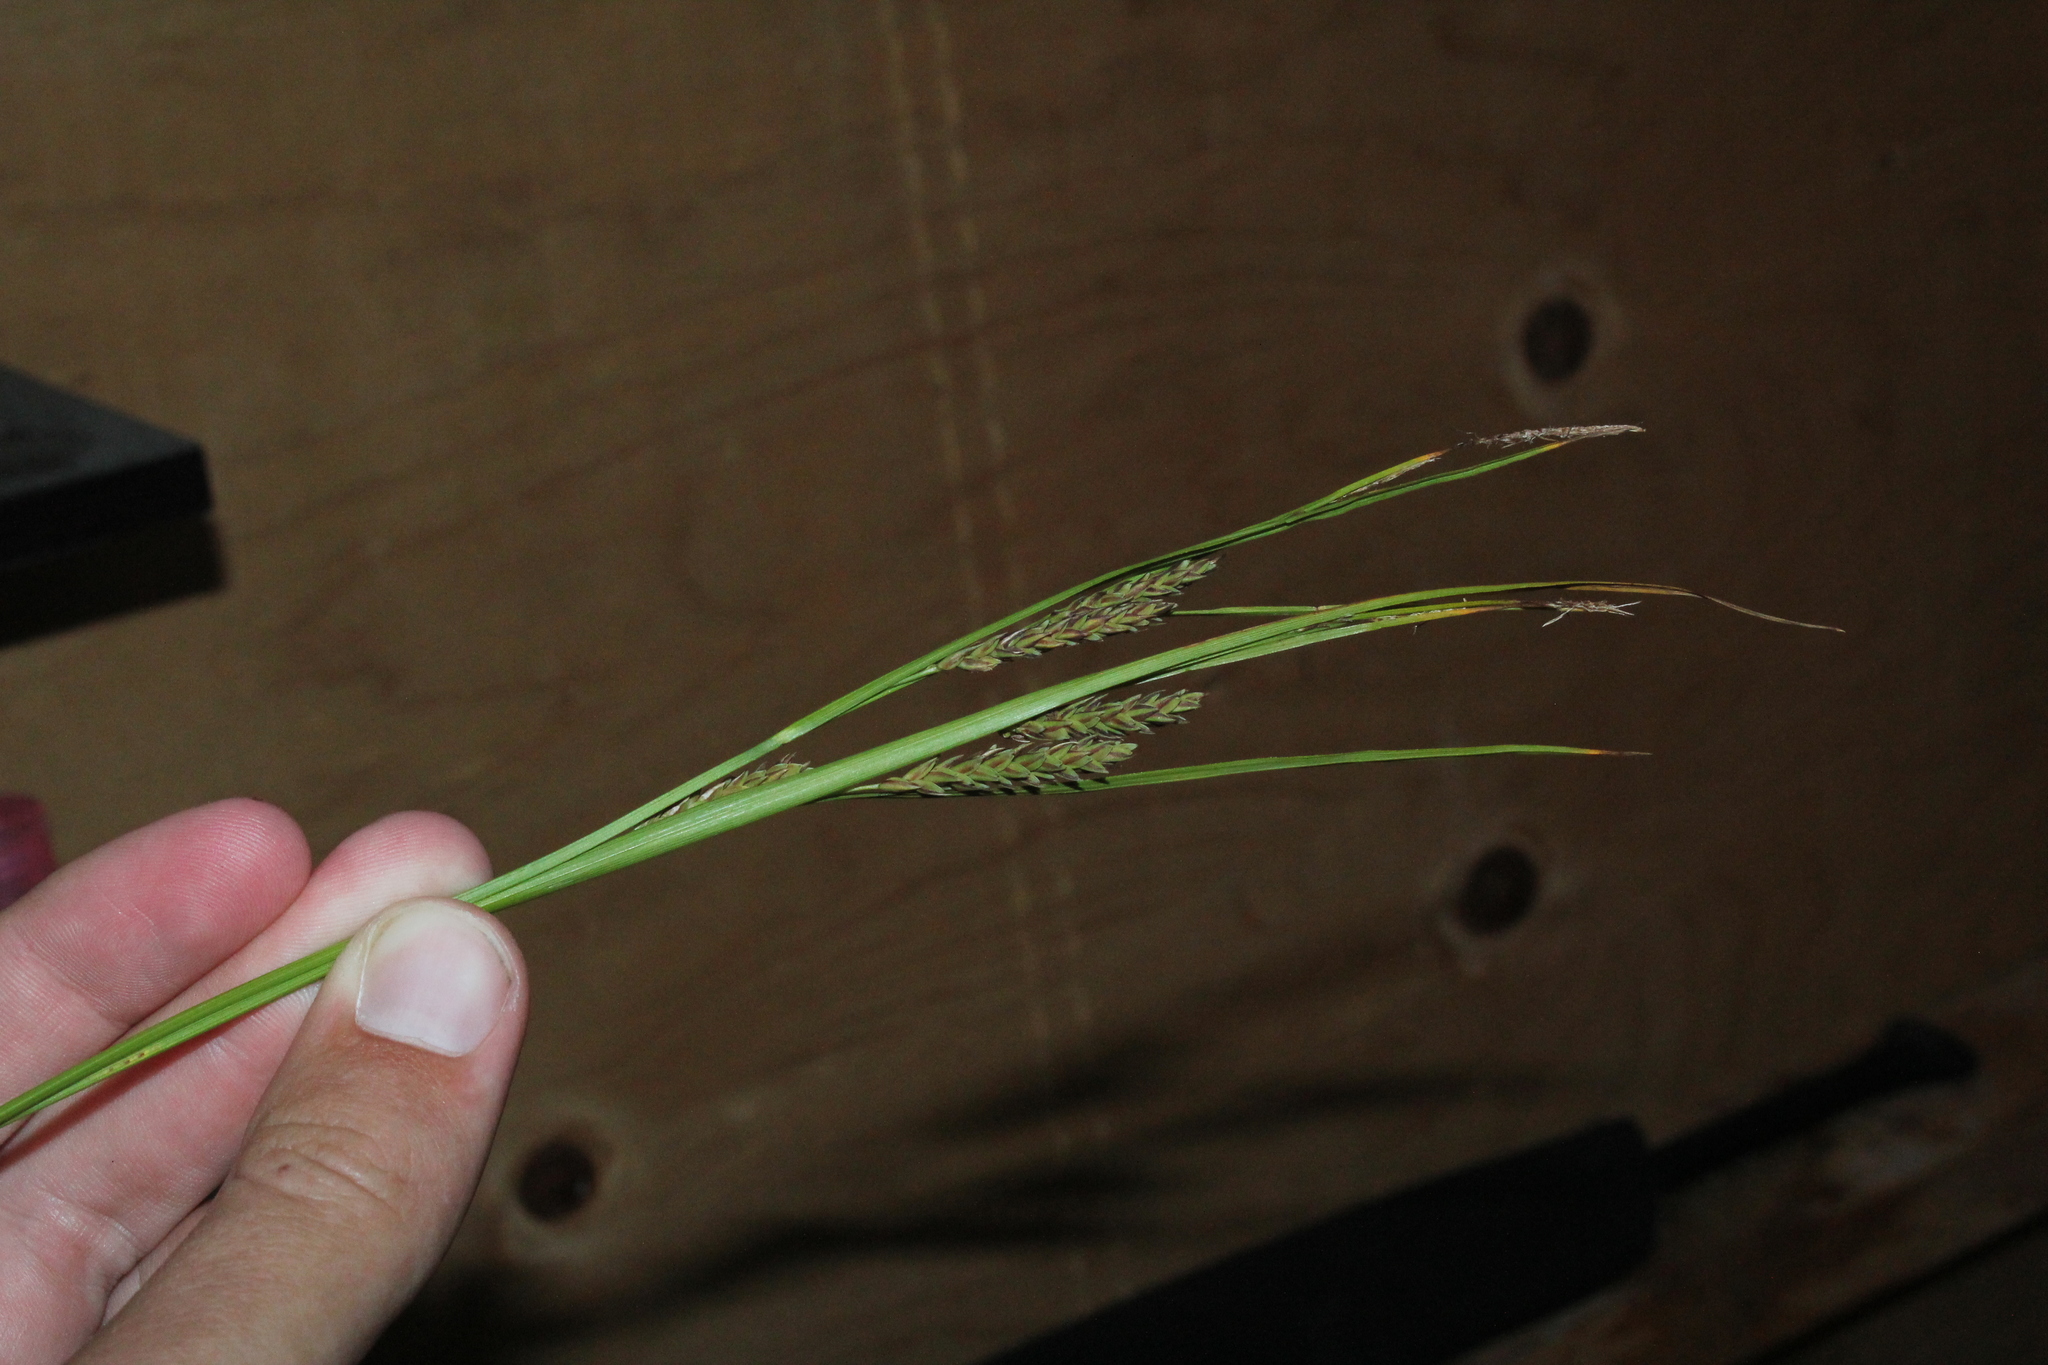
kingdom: Plantae
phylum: Tracheophyta
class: Liliopsida
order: Poales
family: Cyperaceae
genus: Carex
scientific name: Carex salina
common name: Saltmarsh sedge
